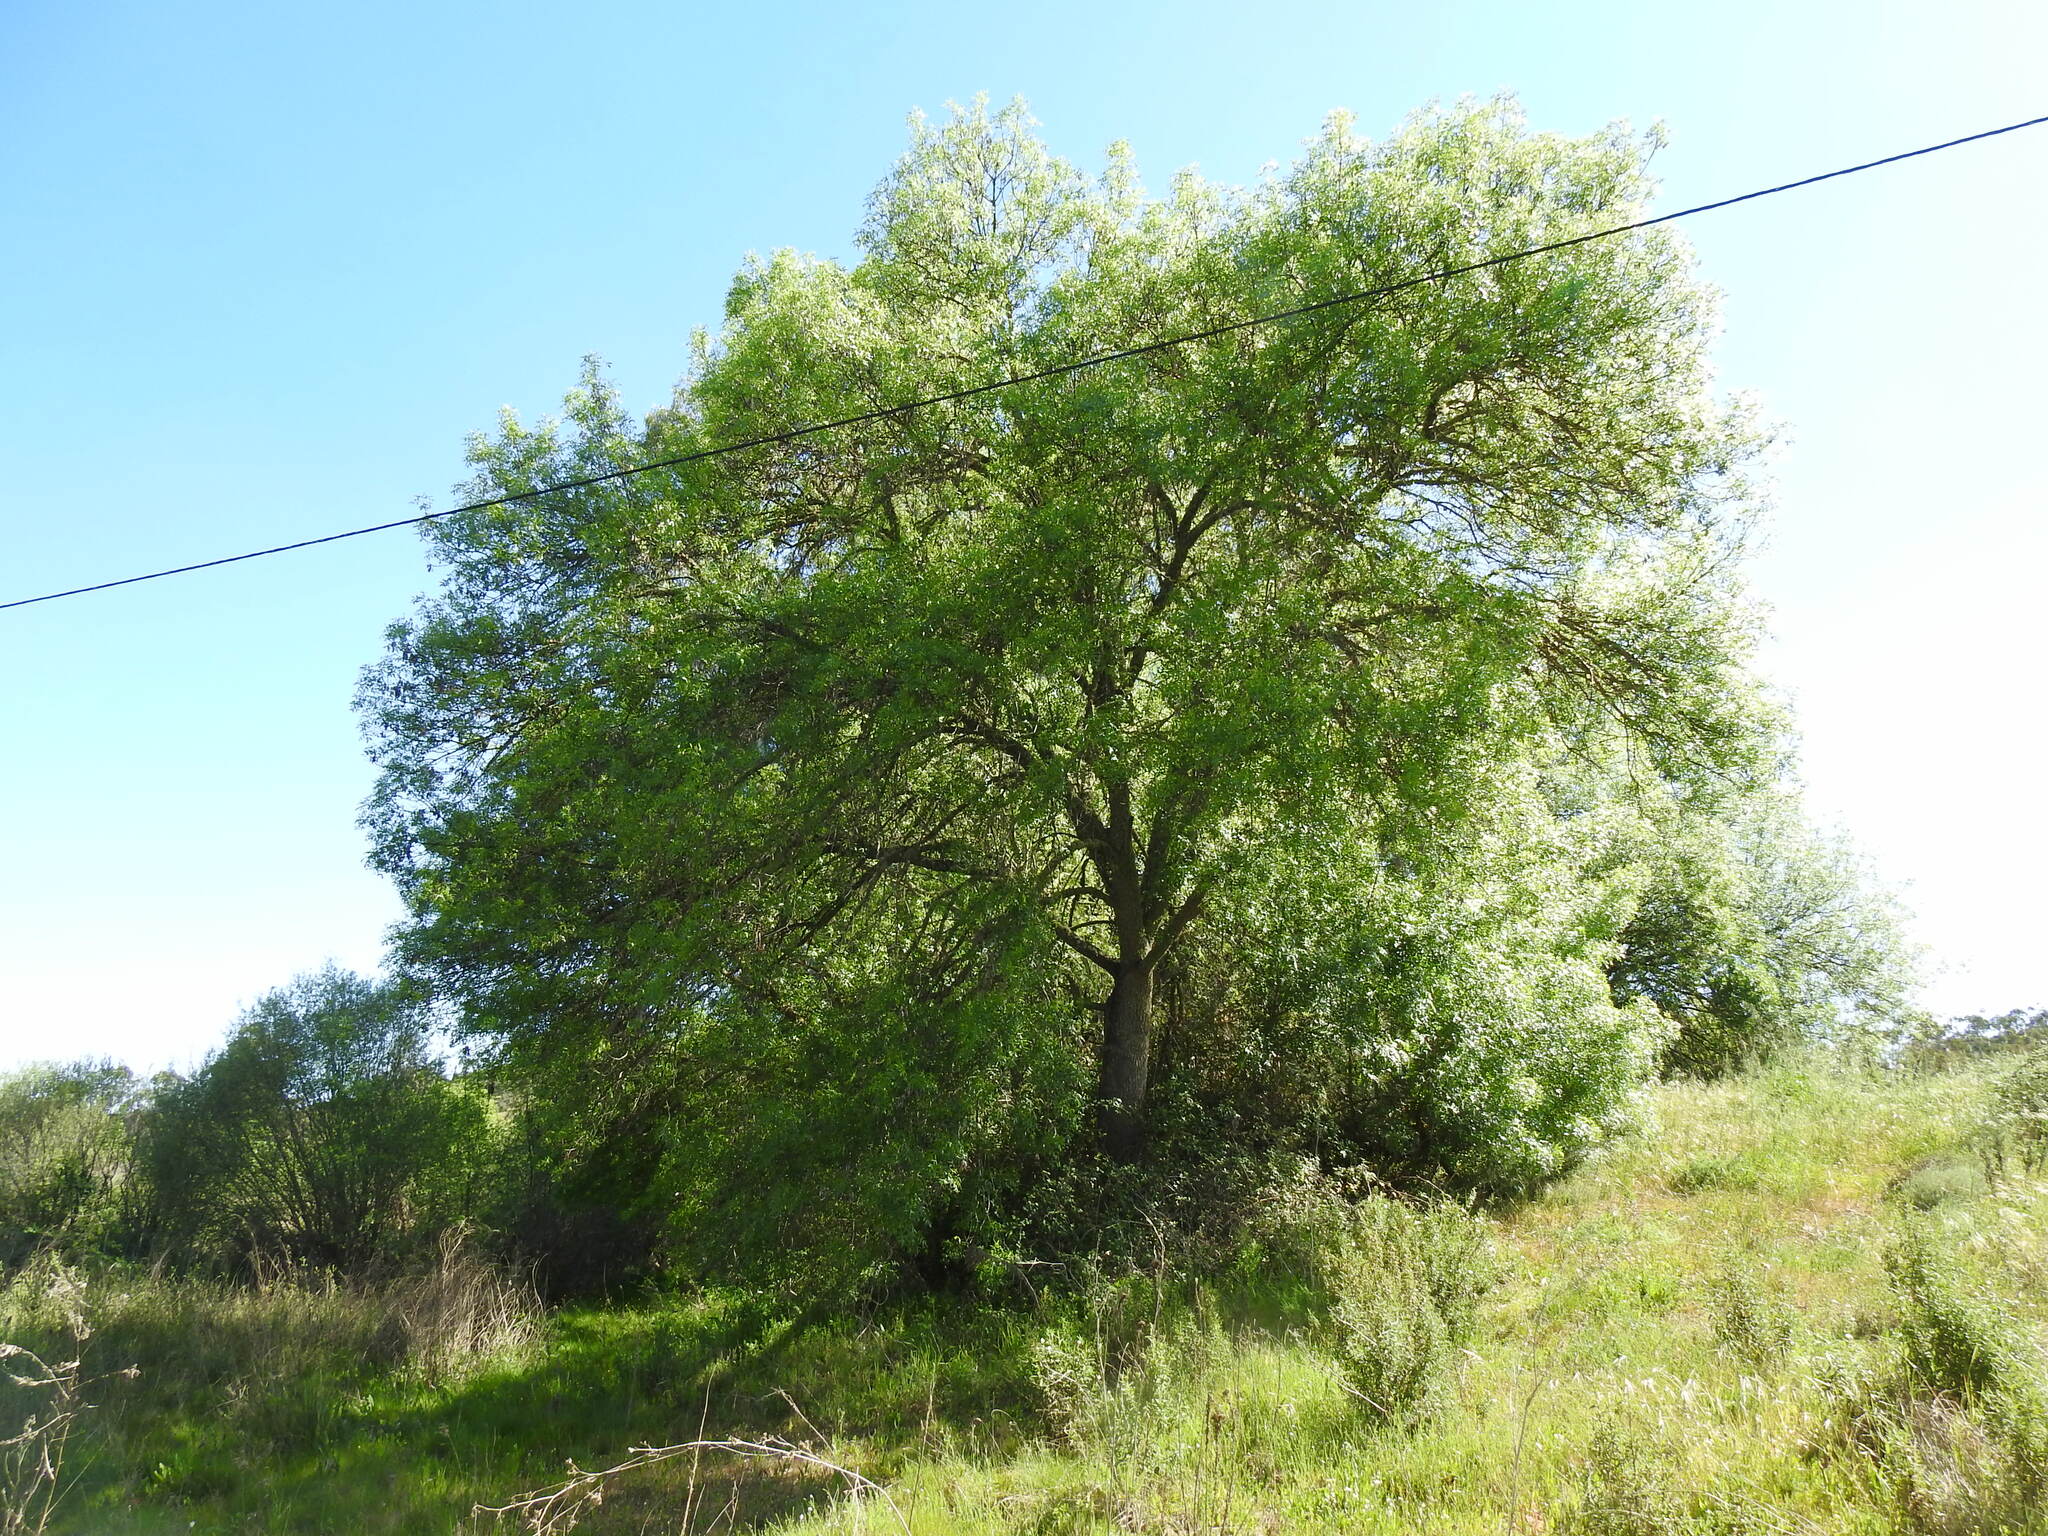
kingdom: Plantae
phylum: Tracheophyta
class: Magnoliopsida
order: Lamiales
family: Oleaceae
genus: Fraxinus
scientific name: Fraxinus angustifolia
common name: Narrow-leafed ash
